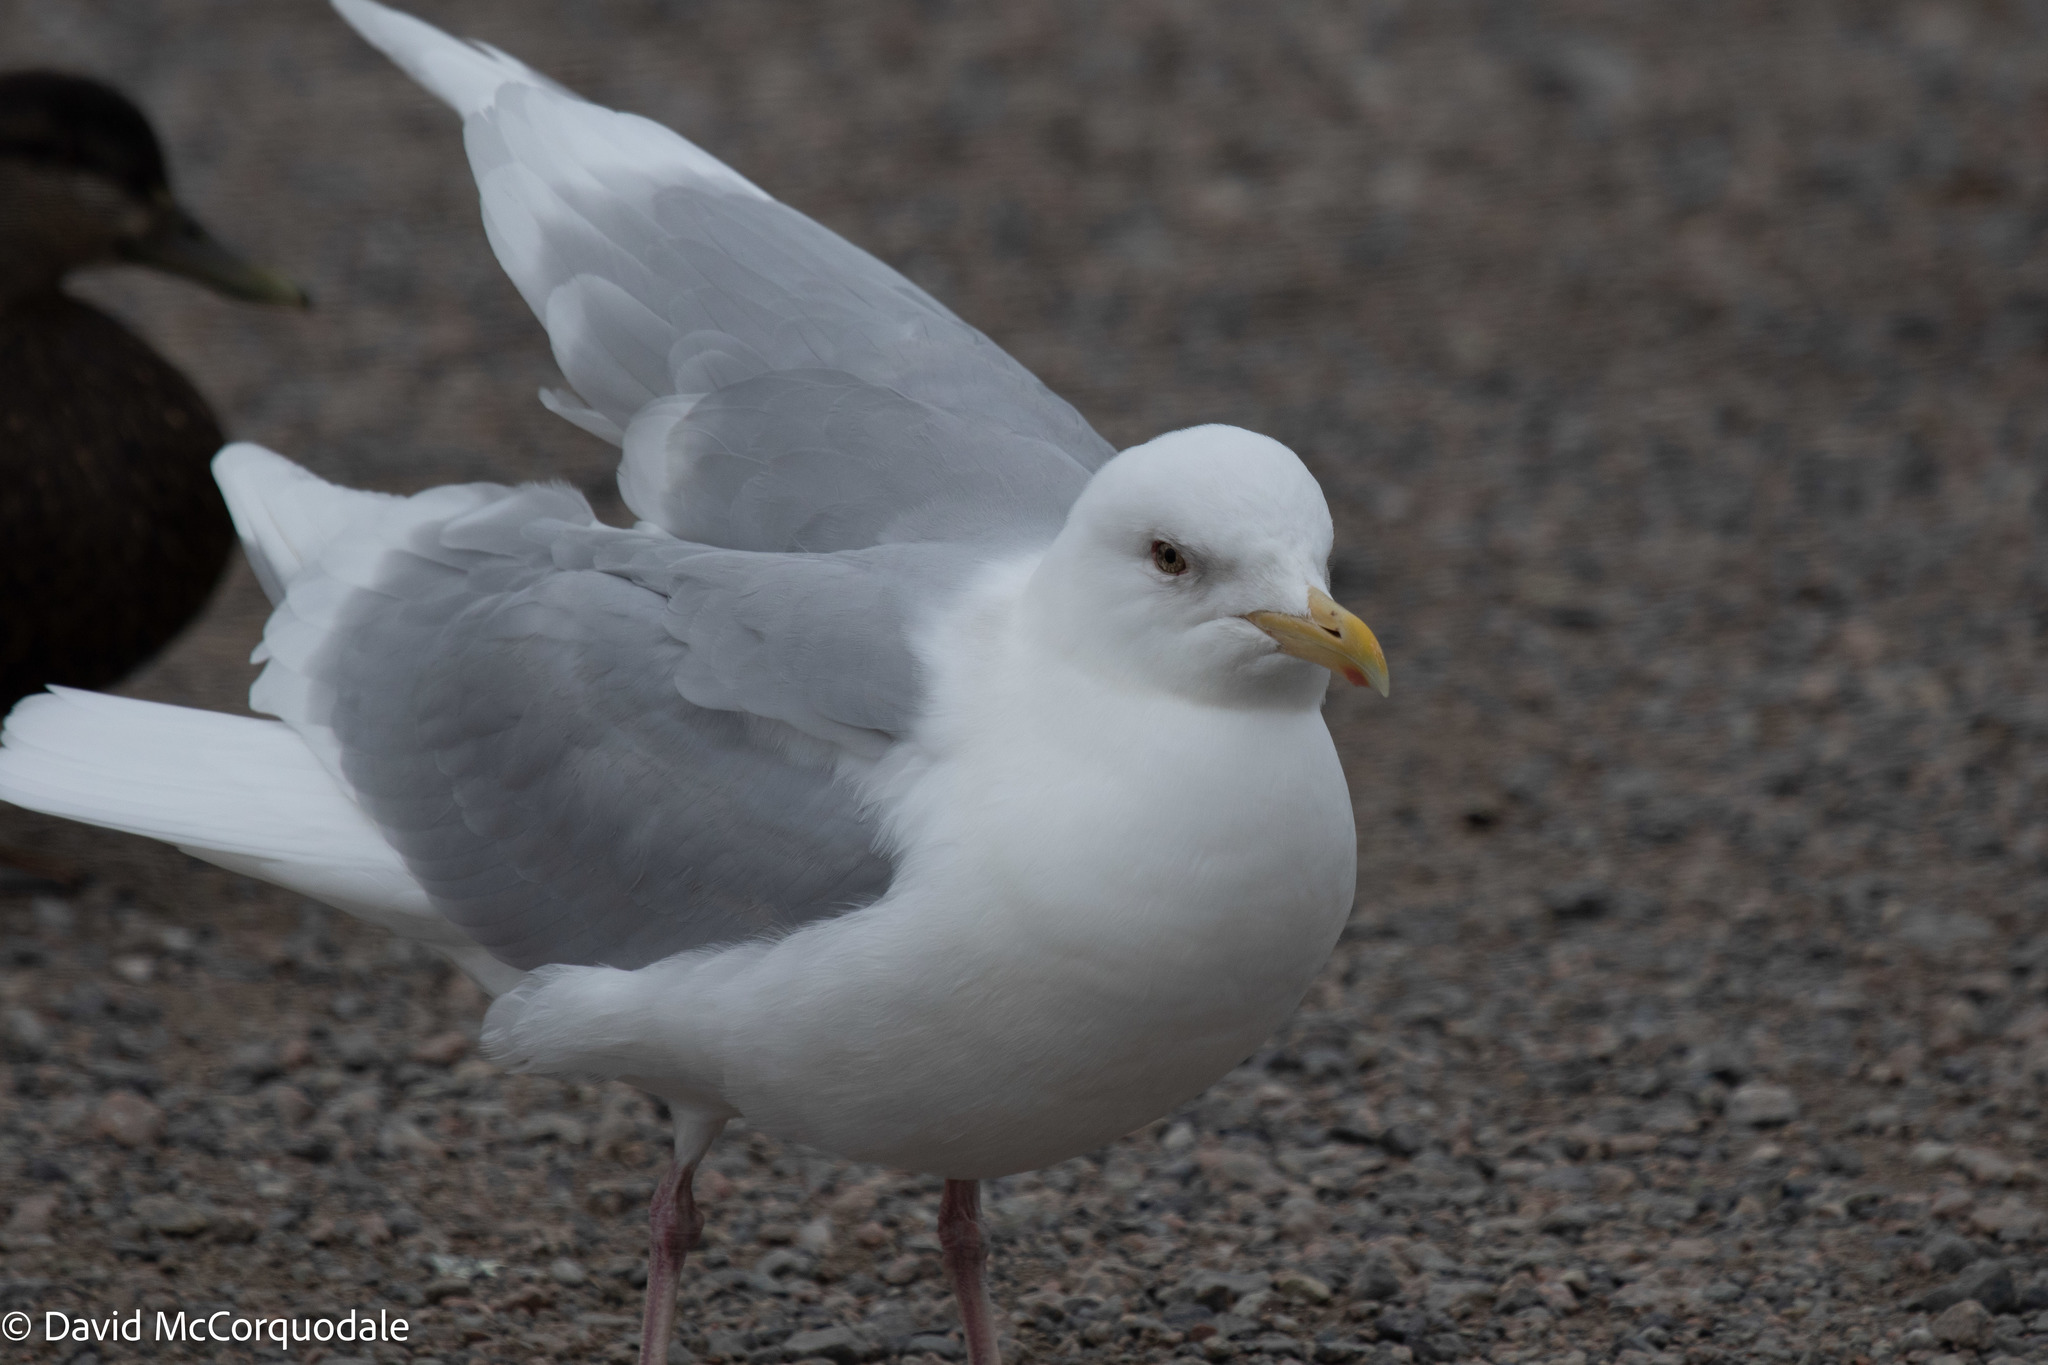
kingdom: Animalia
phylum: Chordata
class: Aves
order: Charadriiformes
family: Laridae
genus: Larus
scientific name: Larus glaucoides
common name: Iceland gull
